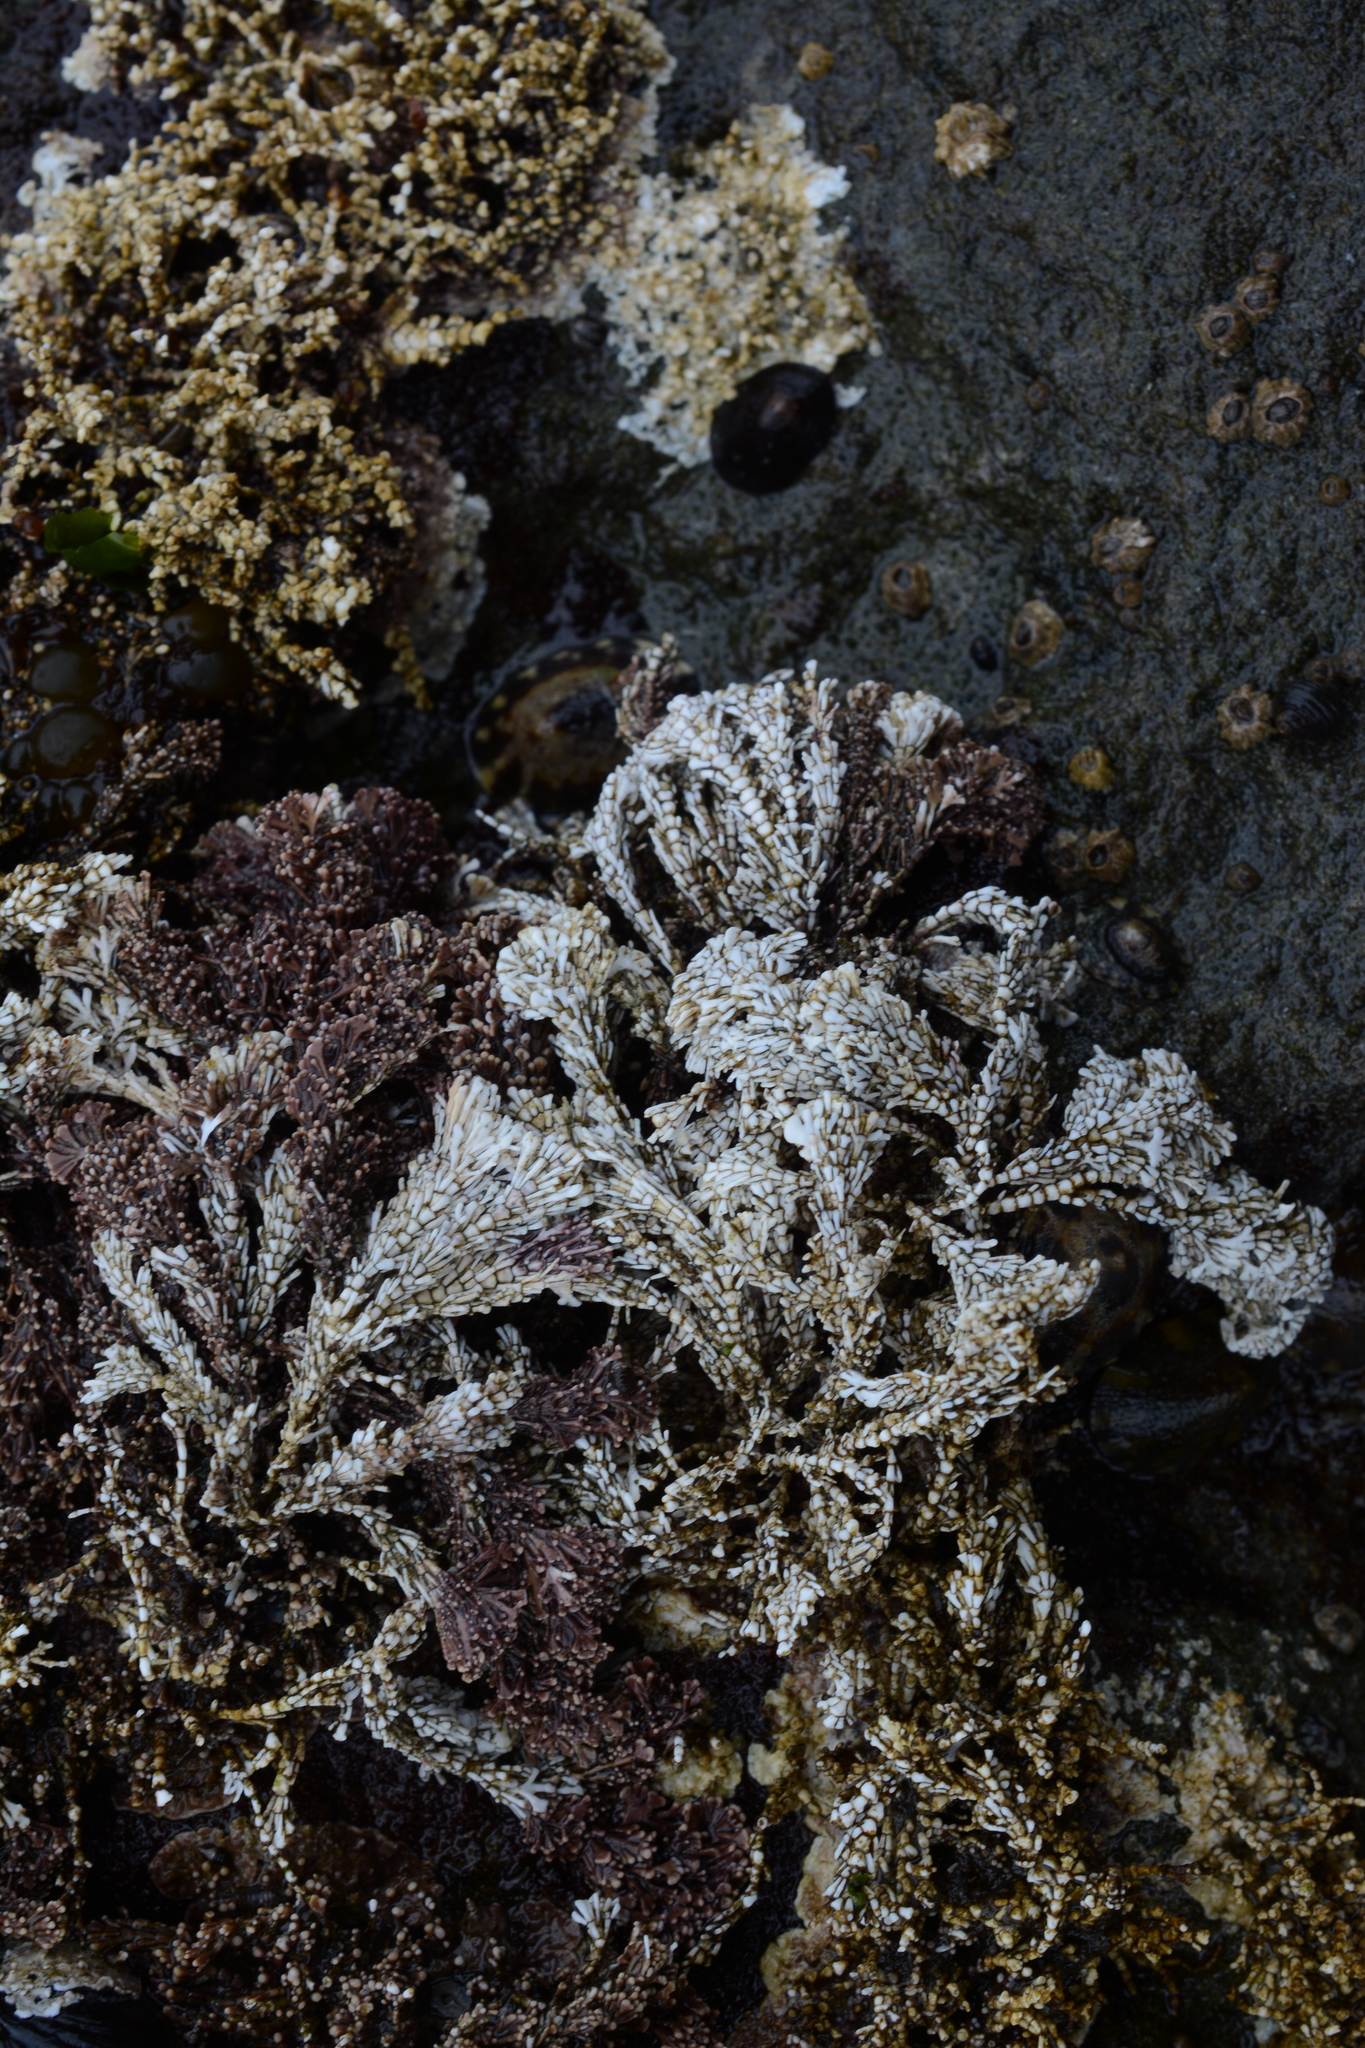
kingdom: Plantae
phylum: Rhodophyta
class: Florideophyceae
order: Corallinales
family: Corallinaceae
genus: Corallina
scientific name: Corallina vancouveriensis
